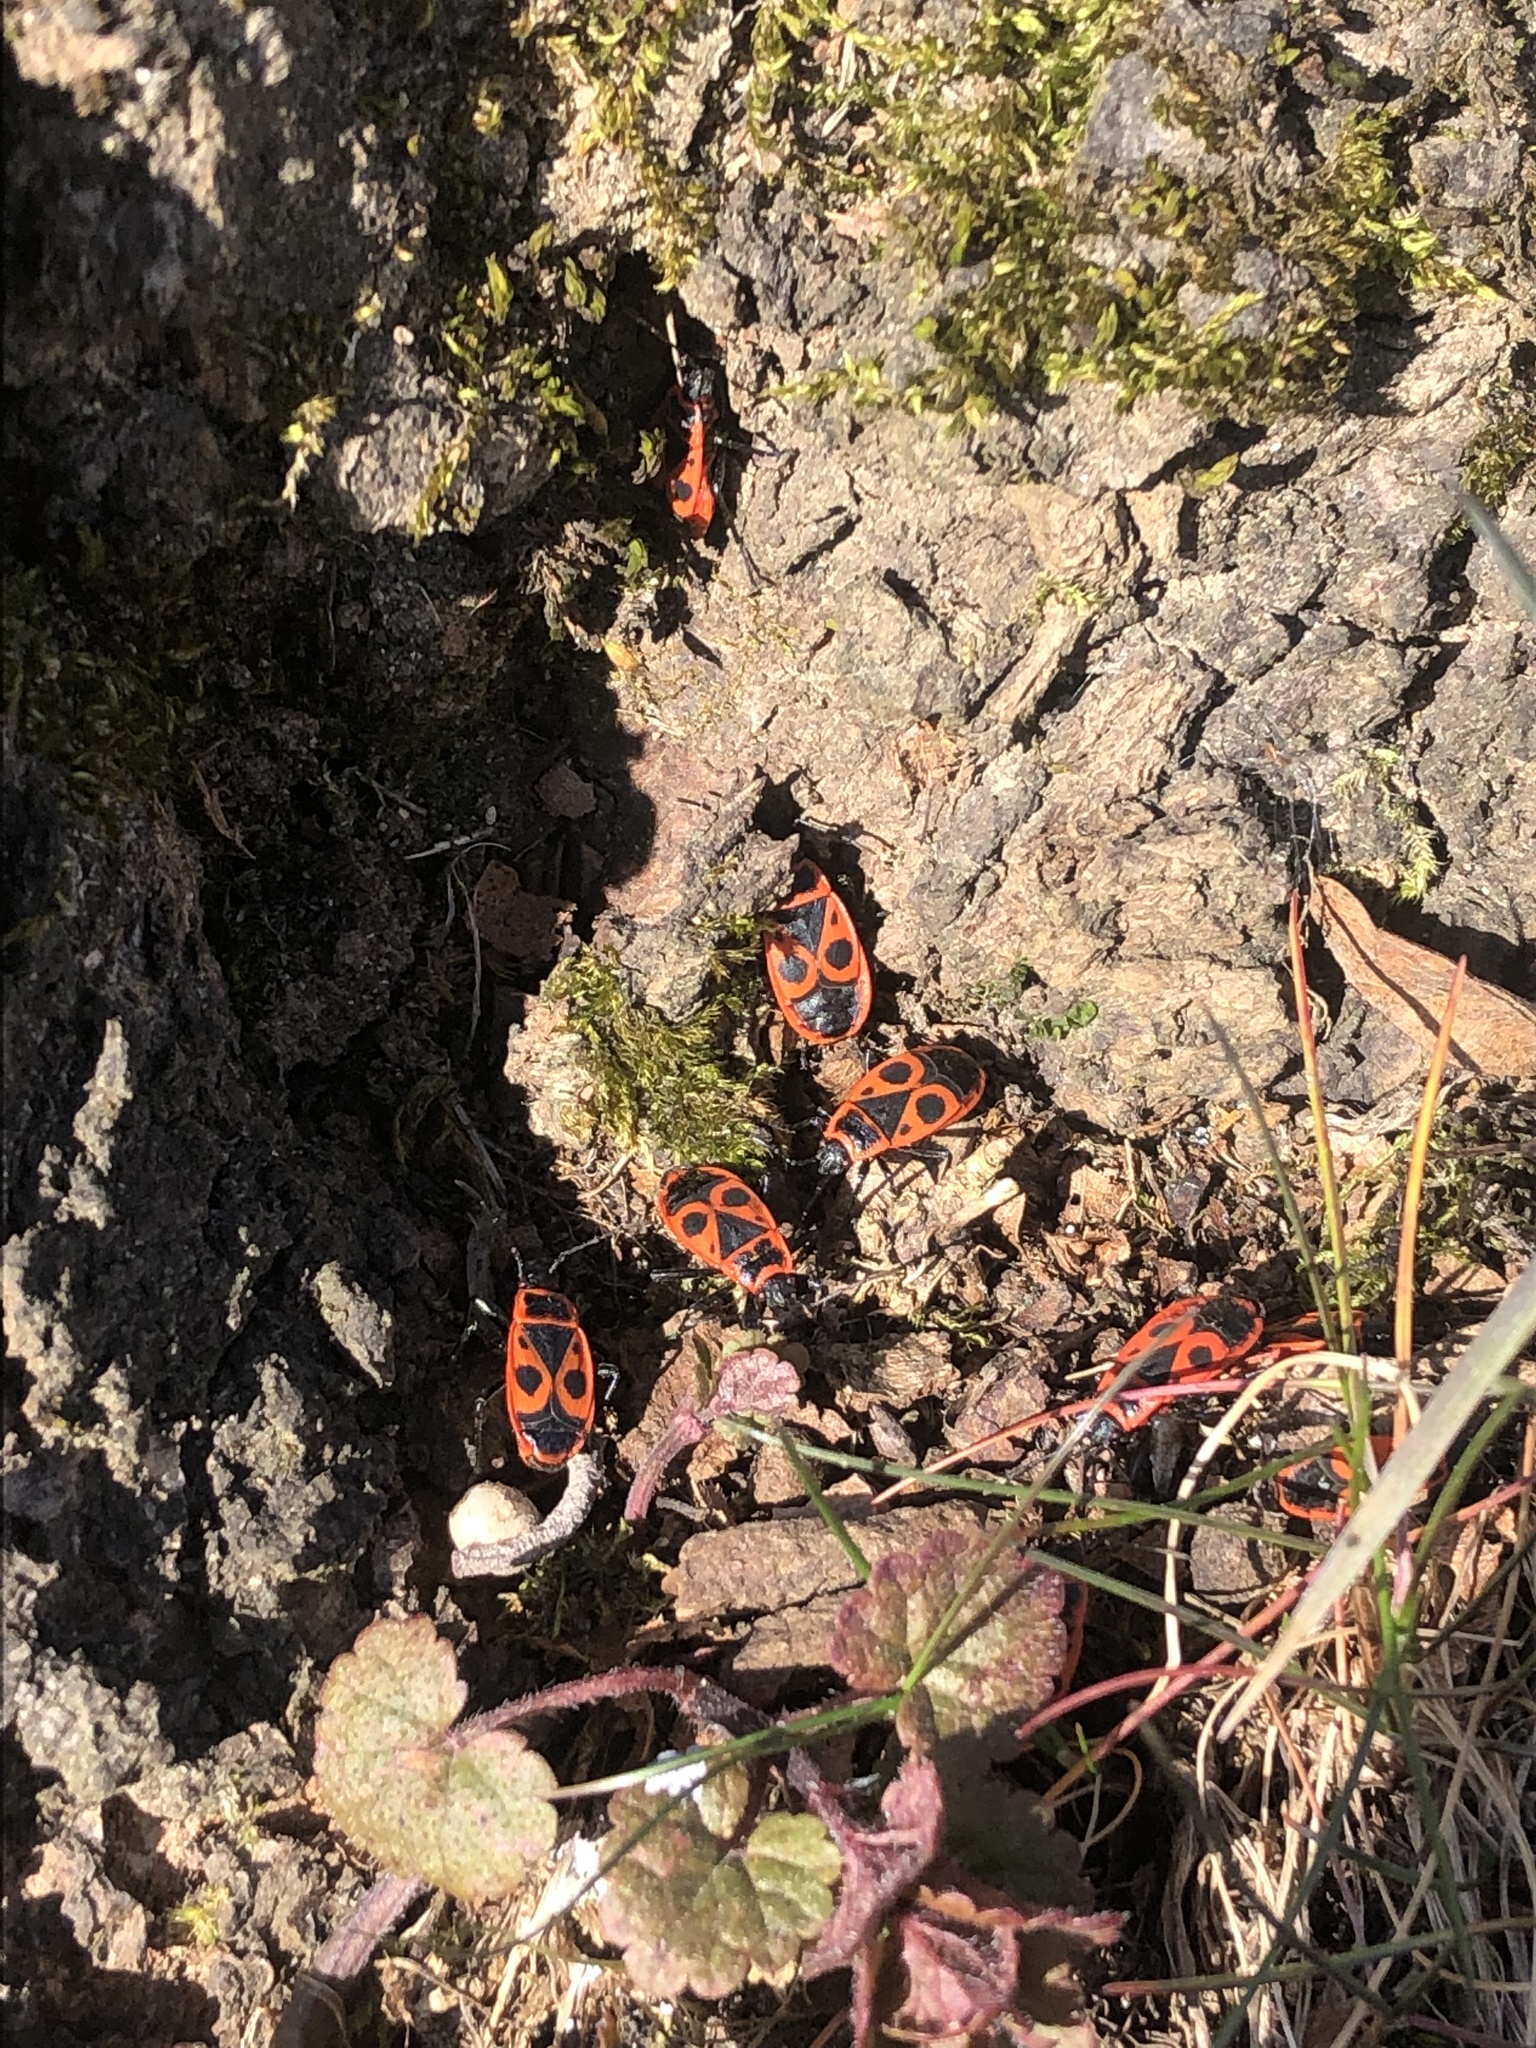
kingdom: Animalia
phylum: Arthropoda
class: Insecta
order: Hemiptera
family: Pyrrhocoridae
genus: Pyrrhocoris
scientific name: Pyrrhocoris apterus
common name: Firebug
